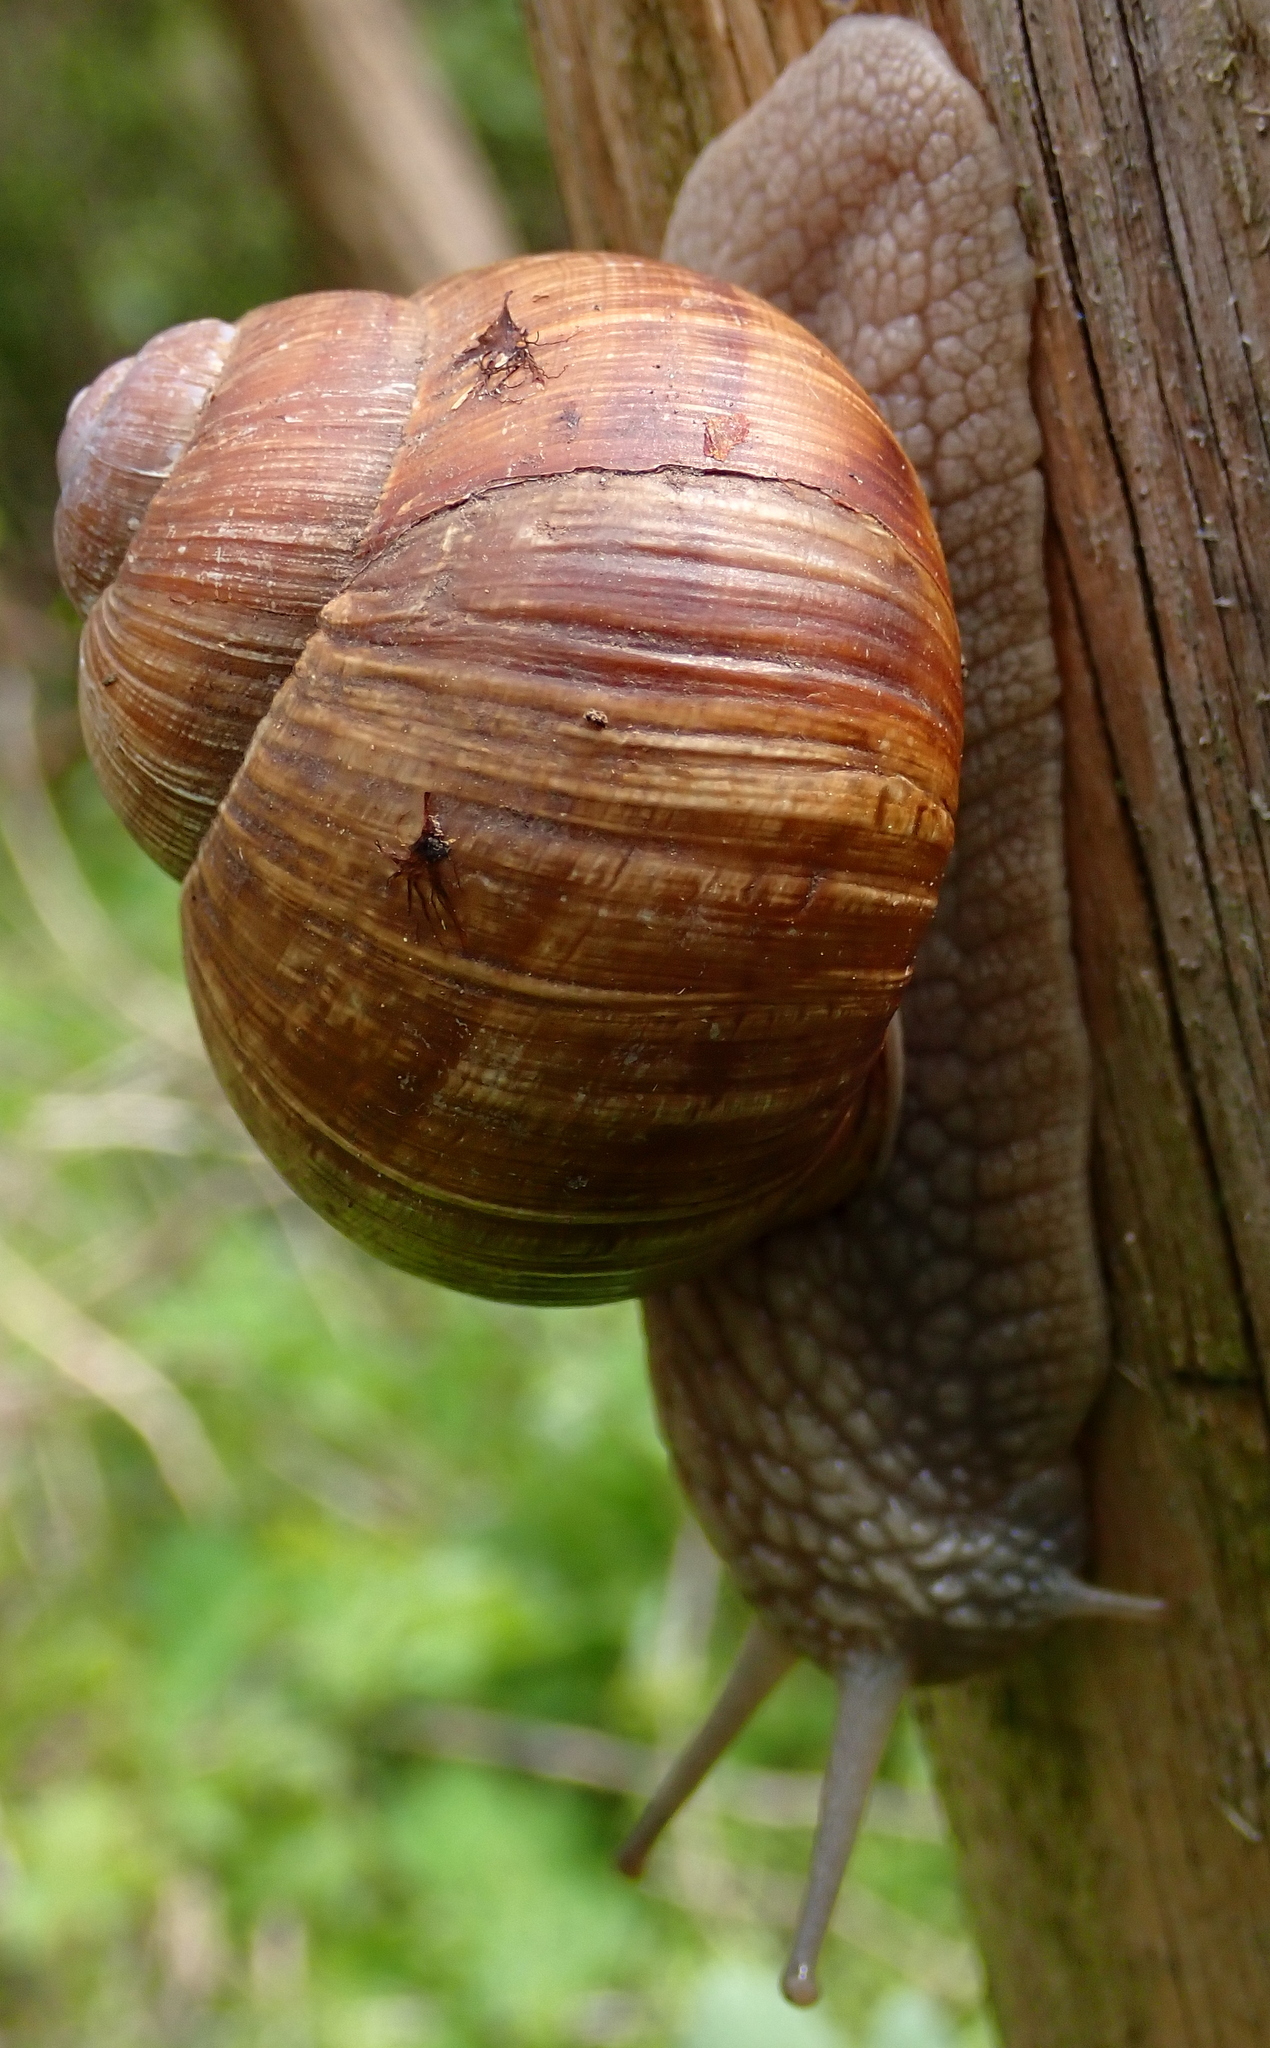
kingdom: Animalia
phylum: Mollusca
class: Gastropoda
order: Stylommatophora
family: Helicidae
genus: Helix
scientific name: Helix pomatia
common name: Roman snail
